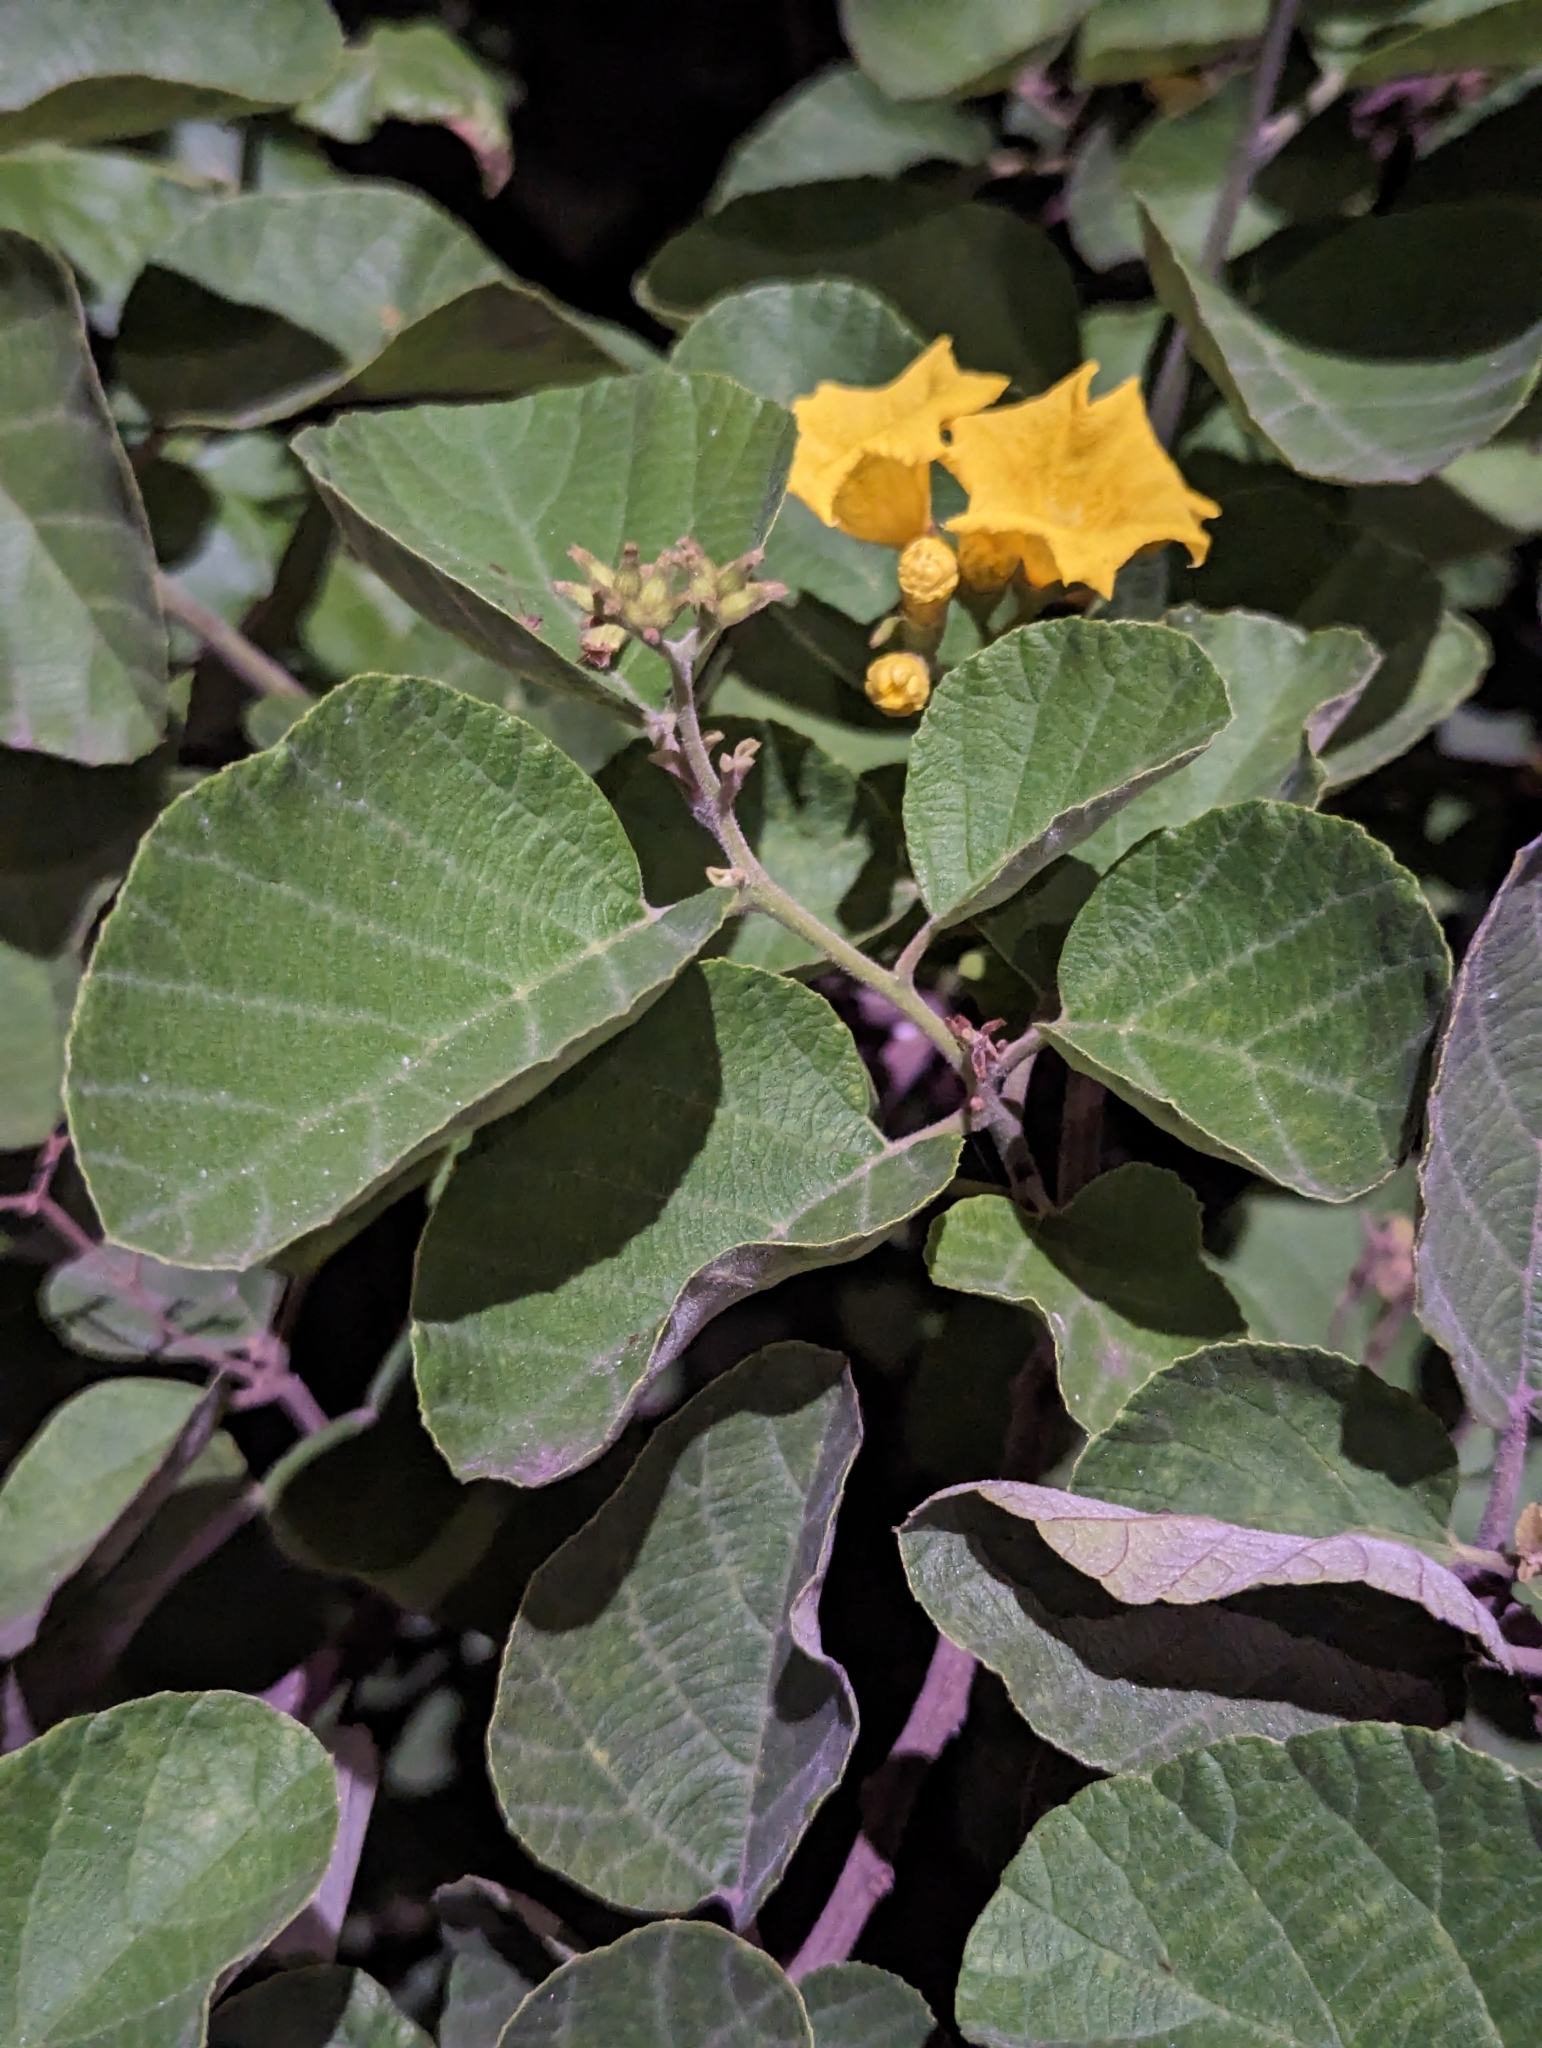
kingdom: Plantae
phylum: Tracheophyta
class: Magnoliopsida
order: Boraginales
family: Cordiaceae
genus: Cordia
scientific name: Cordia lutea
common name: Yellow geiger
